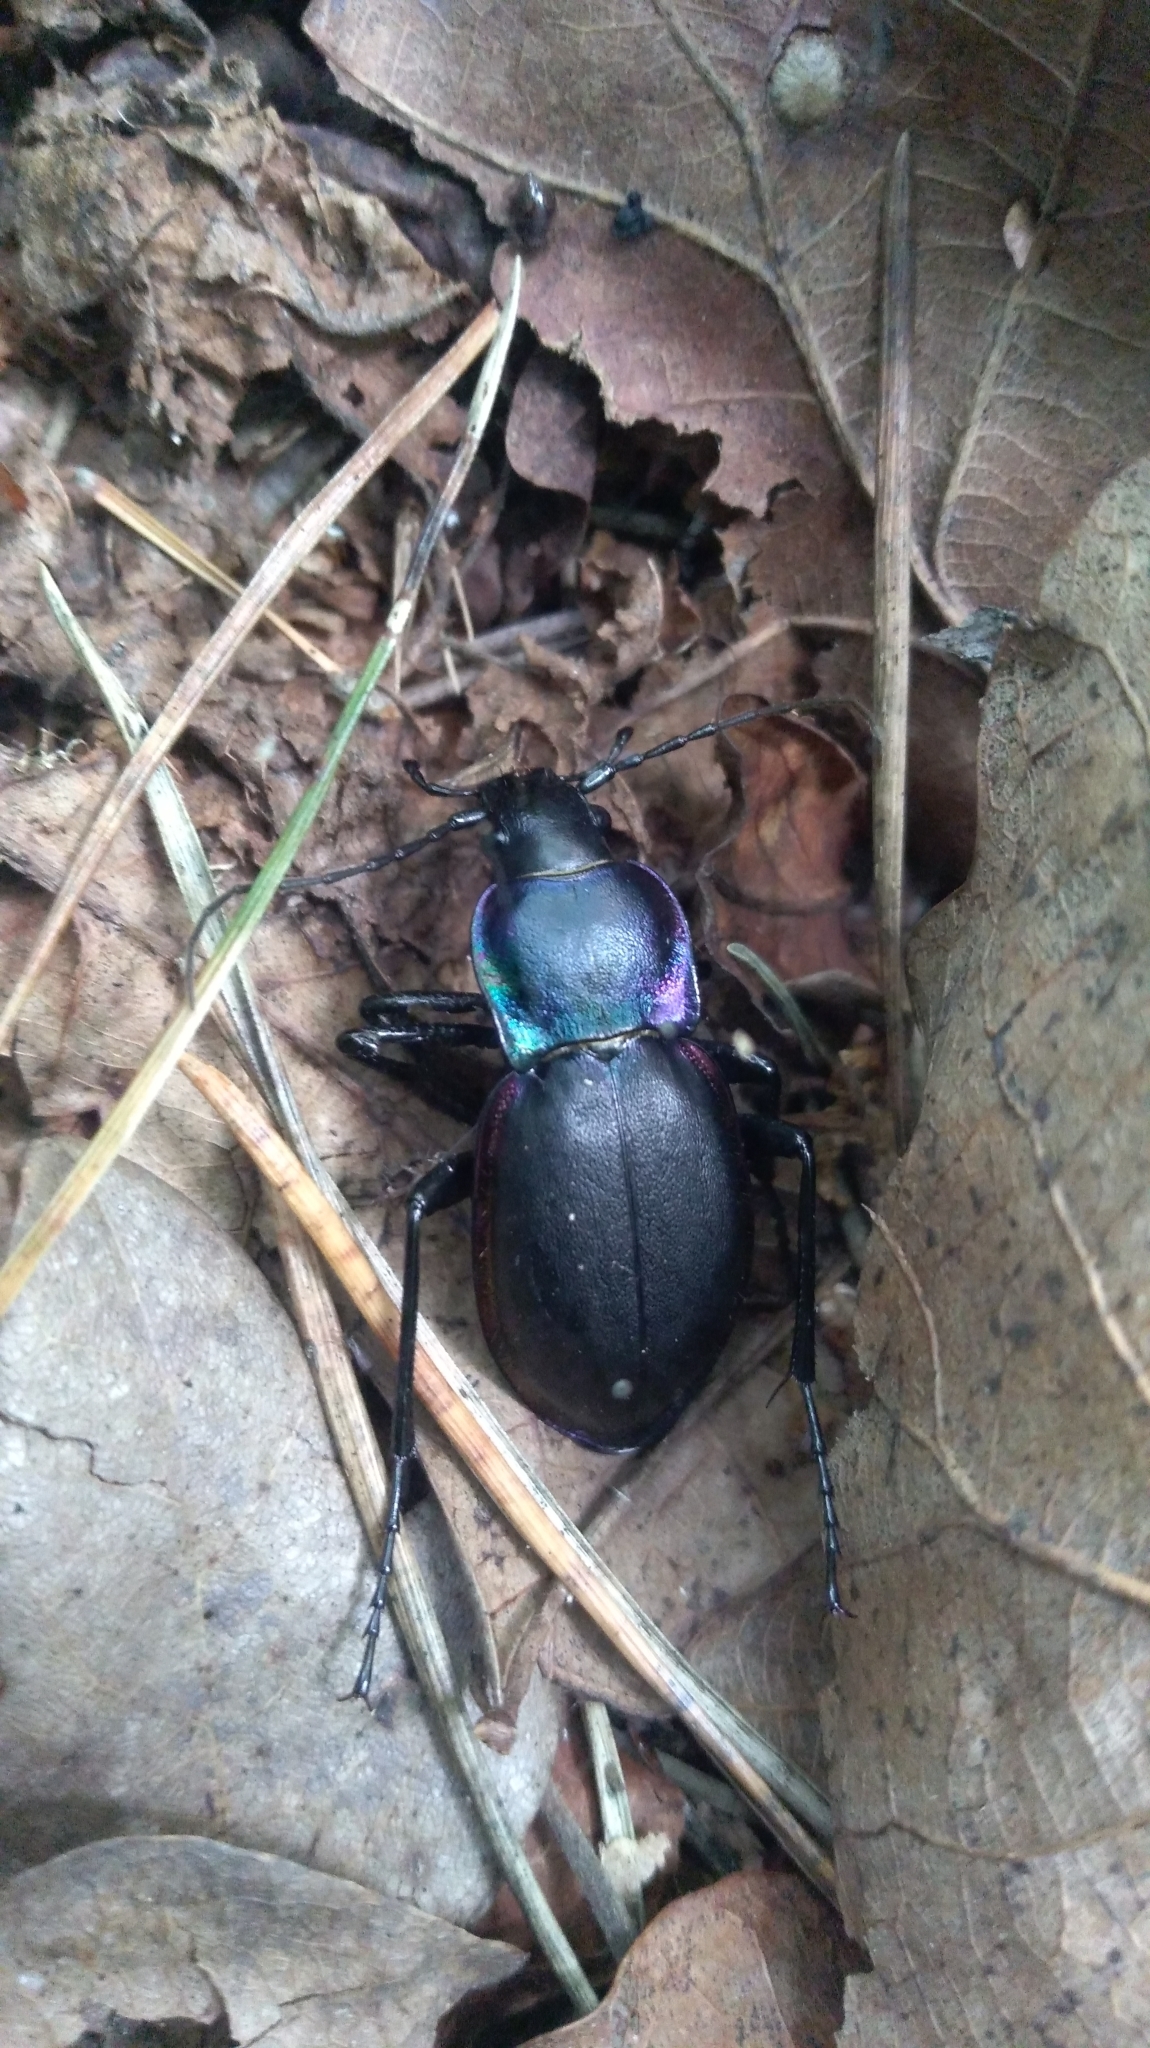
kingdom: Animalia
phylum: Arthropoda
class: Insecta
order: Coleoptera
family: Carabidae
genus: Carabus
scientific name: Carabus violaceus
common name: Violet ground beetle
